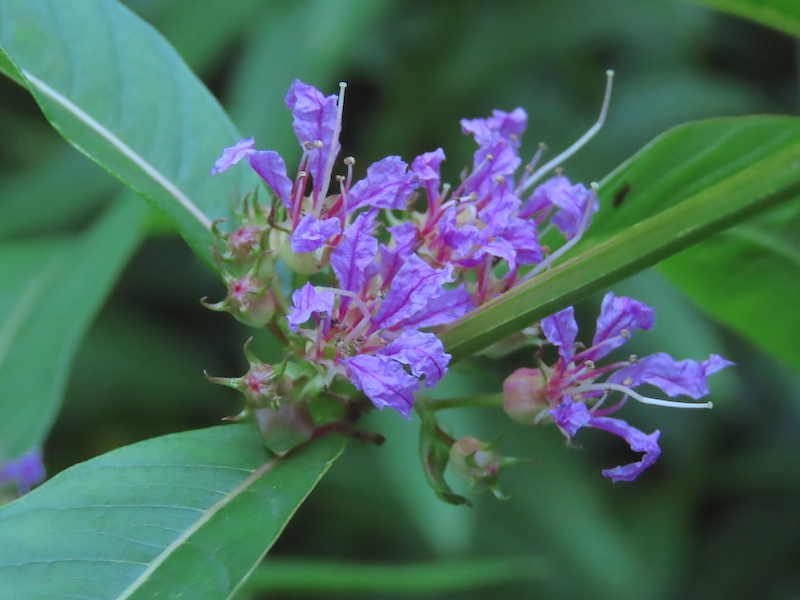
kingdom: Plantae
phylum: Tracheophyta
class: Magnoliopsida
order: Myrtales
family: Lythraceae
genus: Decodon
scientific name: Decodon verticillatus
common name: Hairy swamp loosestrife
